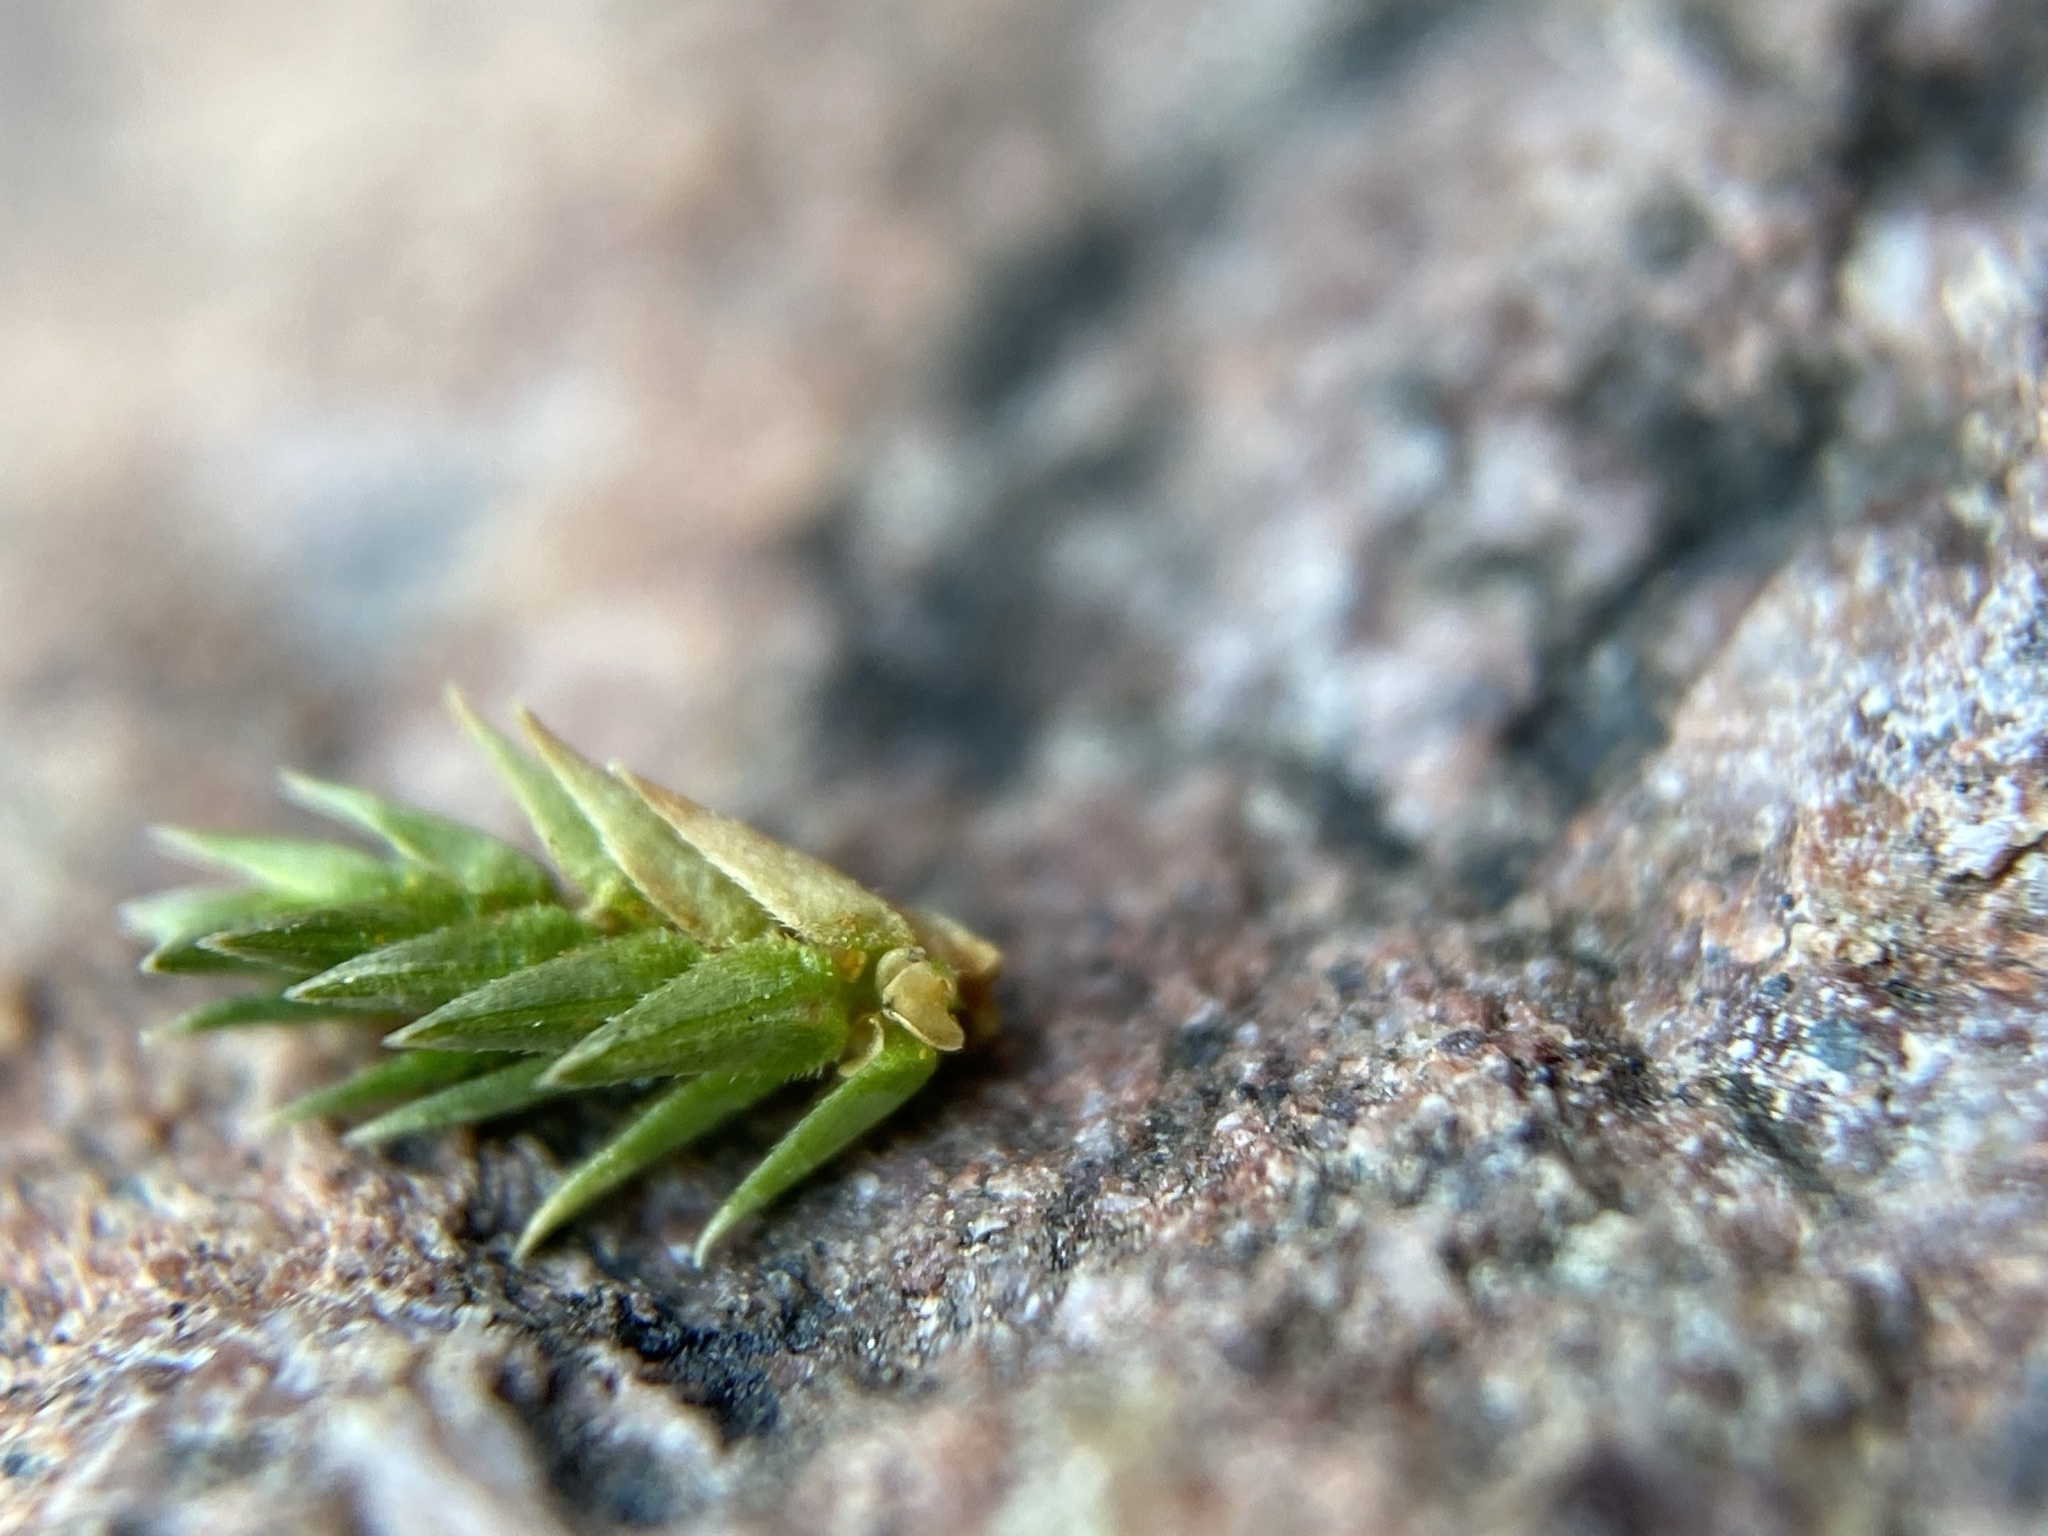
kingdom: Plantae
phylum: Tracheophyta
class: Lycopodiopsida
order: Selaginellales
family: Selaginellaceae
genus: Selaginella
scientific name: Selaginella arizonica
